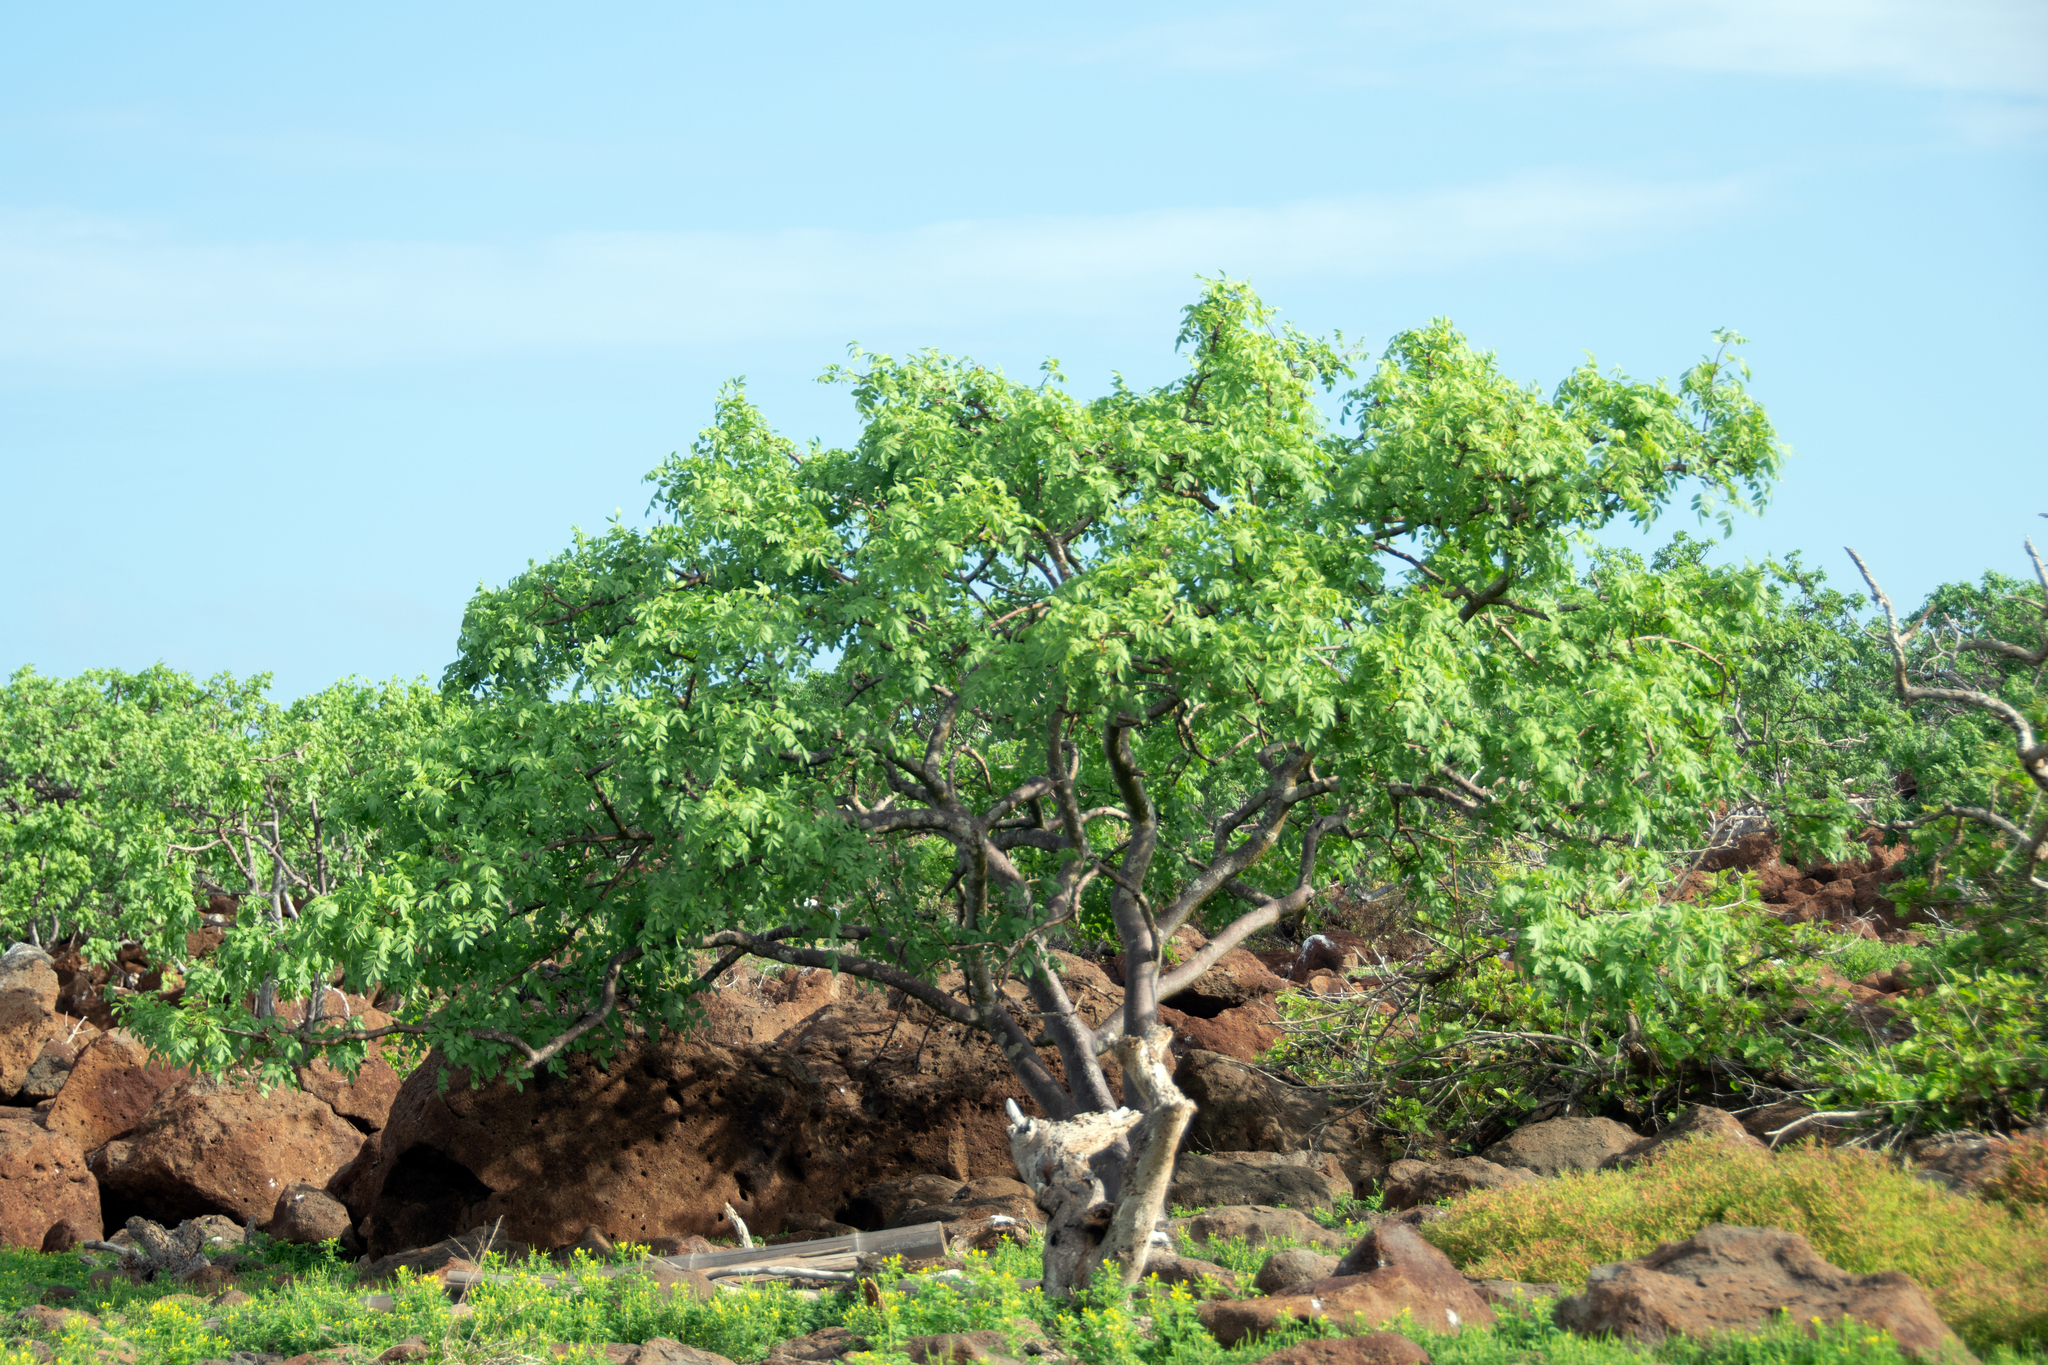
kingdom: Plantae
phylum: Tracheophyta
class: Magnoliopsida
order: Sapindales
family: Burseraceae
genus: Bursera
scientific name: Bursera graveolens
